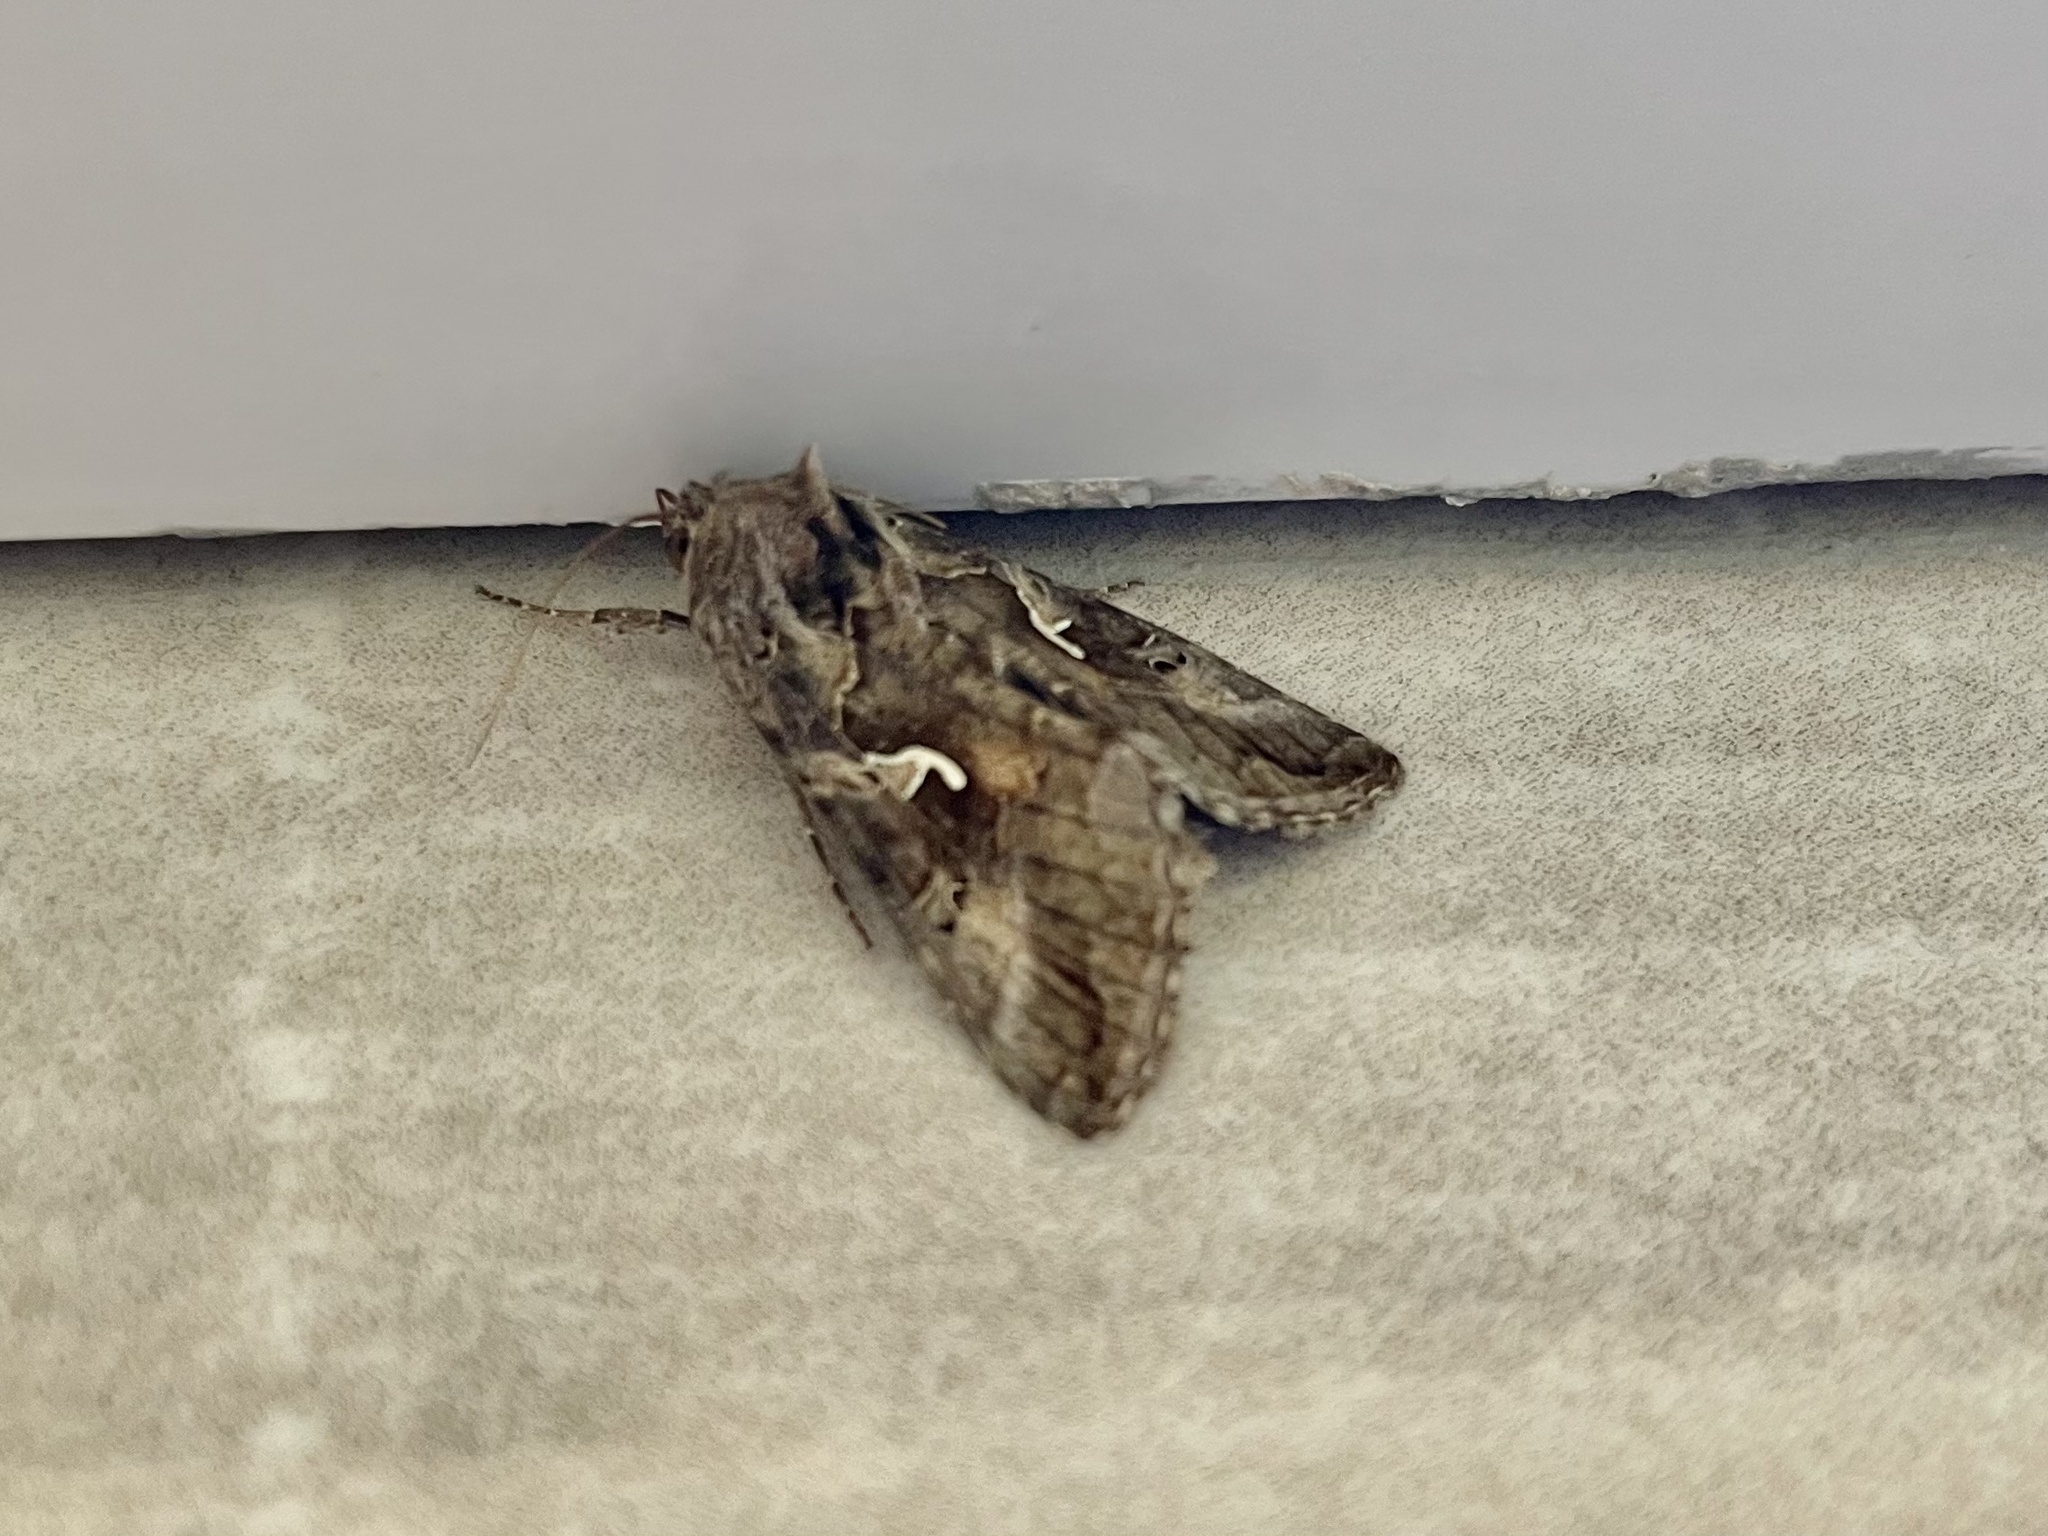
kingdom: Animalia
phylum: Arthropoda
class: Insecta
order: Lepidoptera
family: Noctuidae
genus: Autographa
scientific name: Autographa gamma
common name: Silver y
